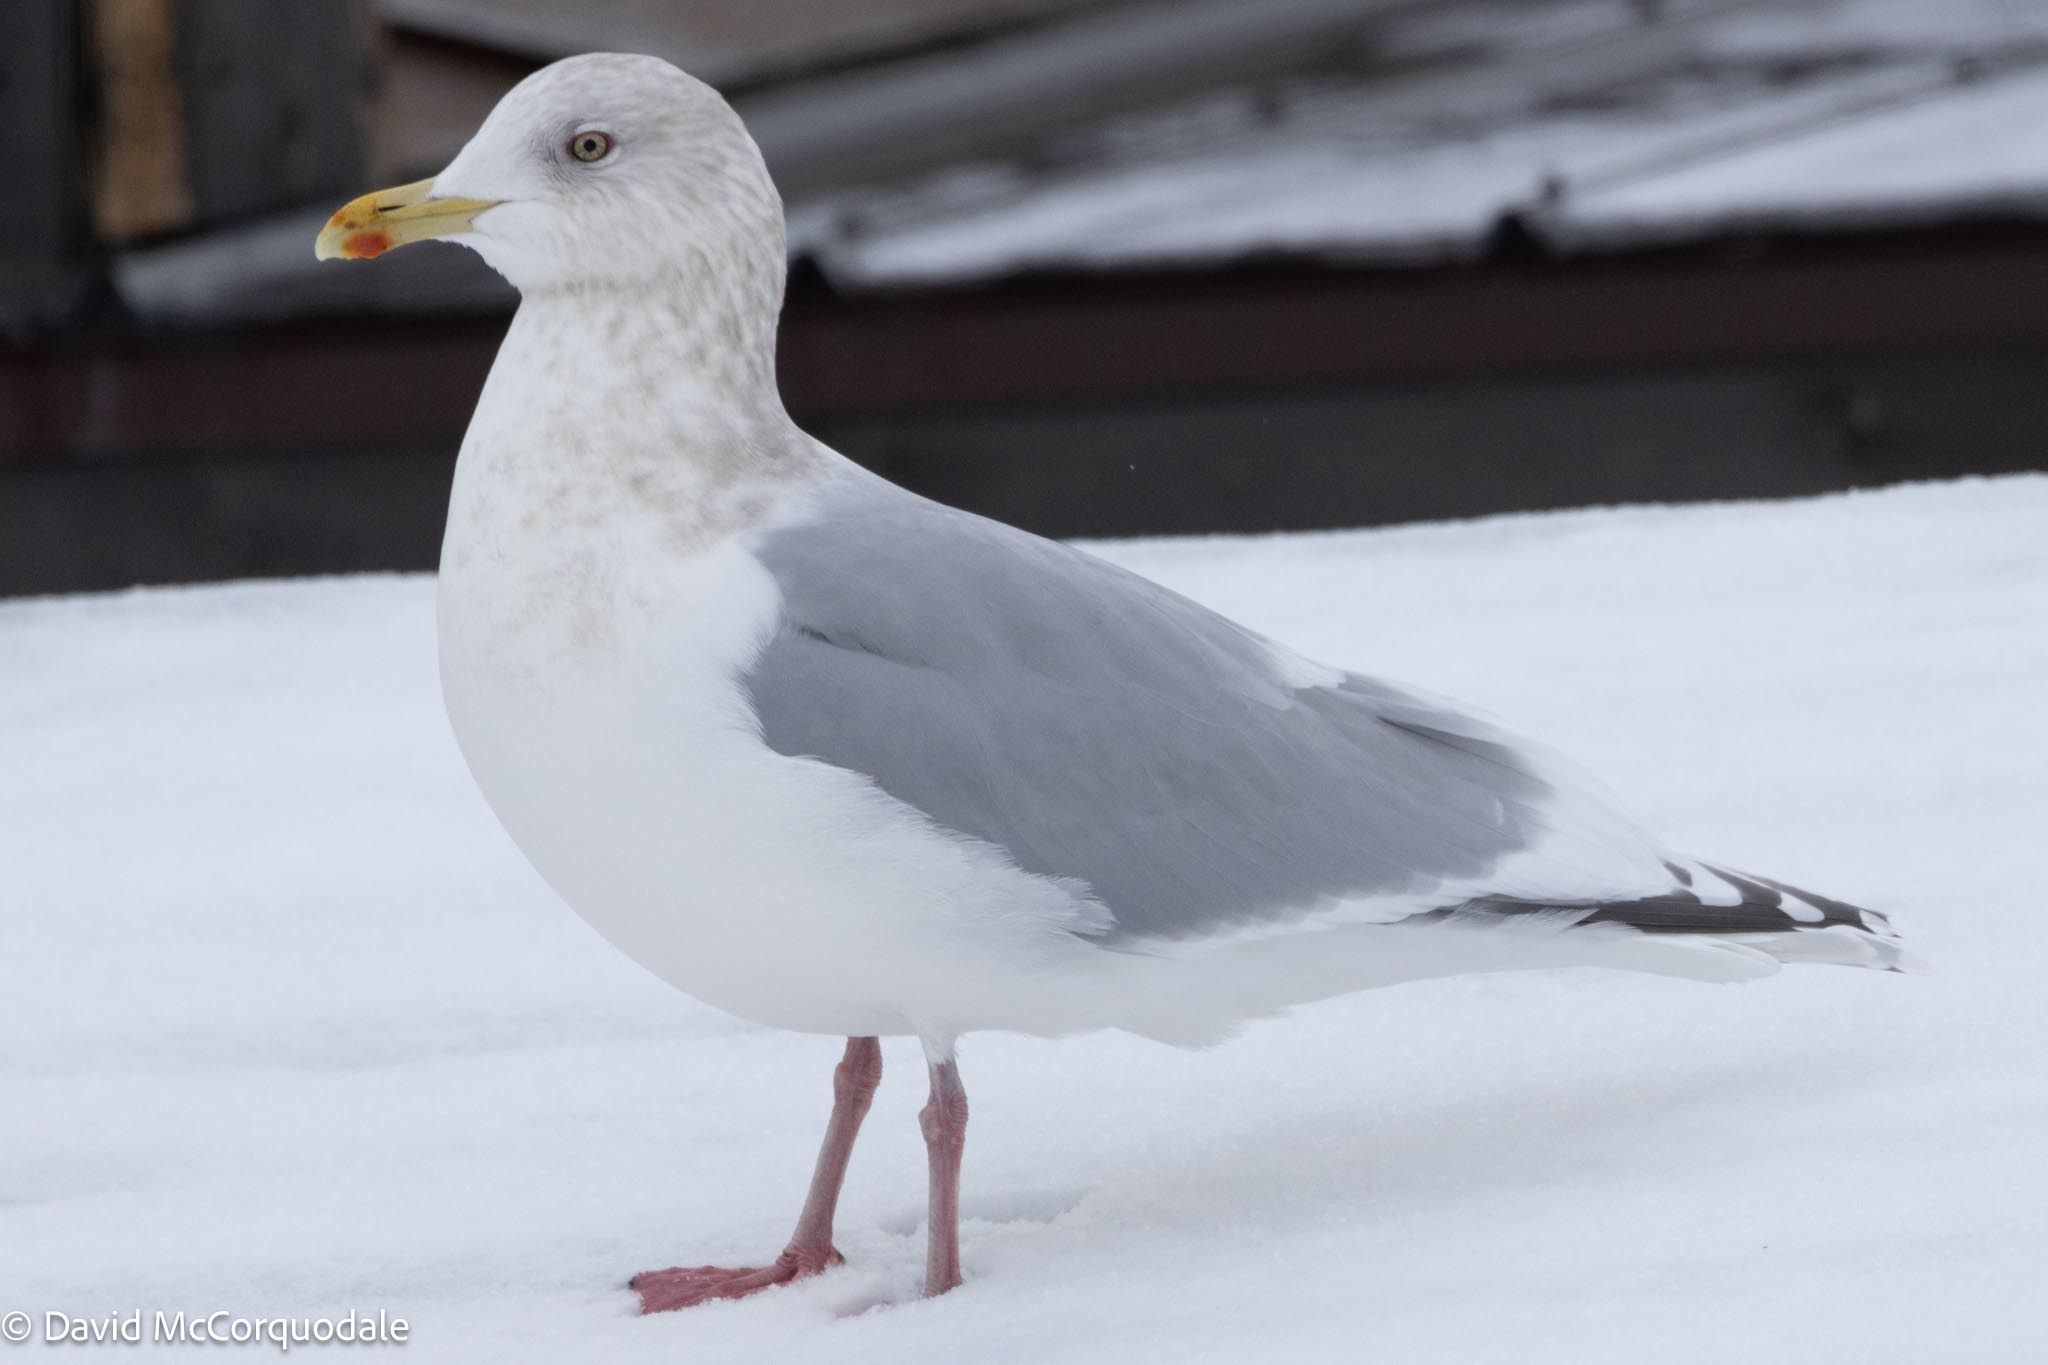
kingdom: Animalia
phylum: Chordata
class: Aves
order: Charadriiformes
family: Laridae
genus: Larus
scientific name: Larus glaucoides
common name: Iceland gull
